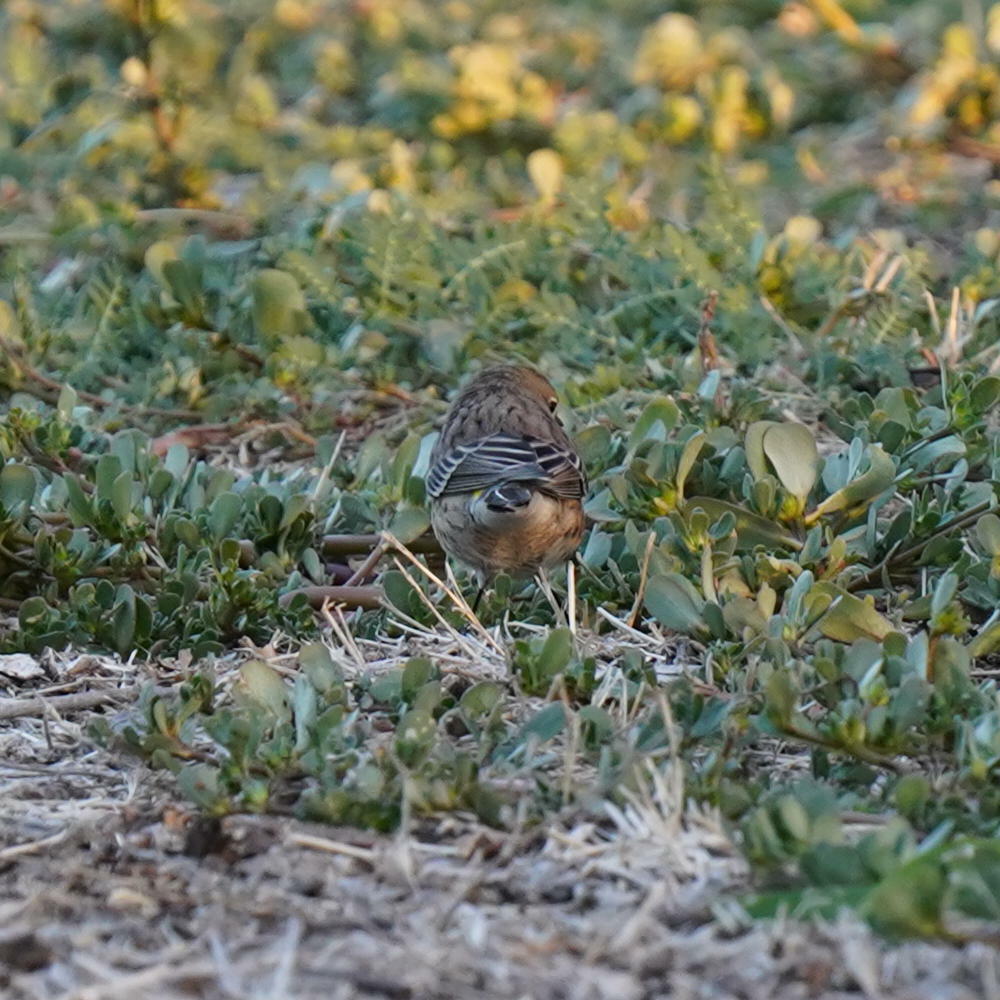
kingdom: Animalia
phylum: Chordata
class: Aves
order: Passeriformes
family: Parulidae
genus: Setophaga
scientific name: Setophaga coronata
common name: Myrtle warbler
